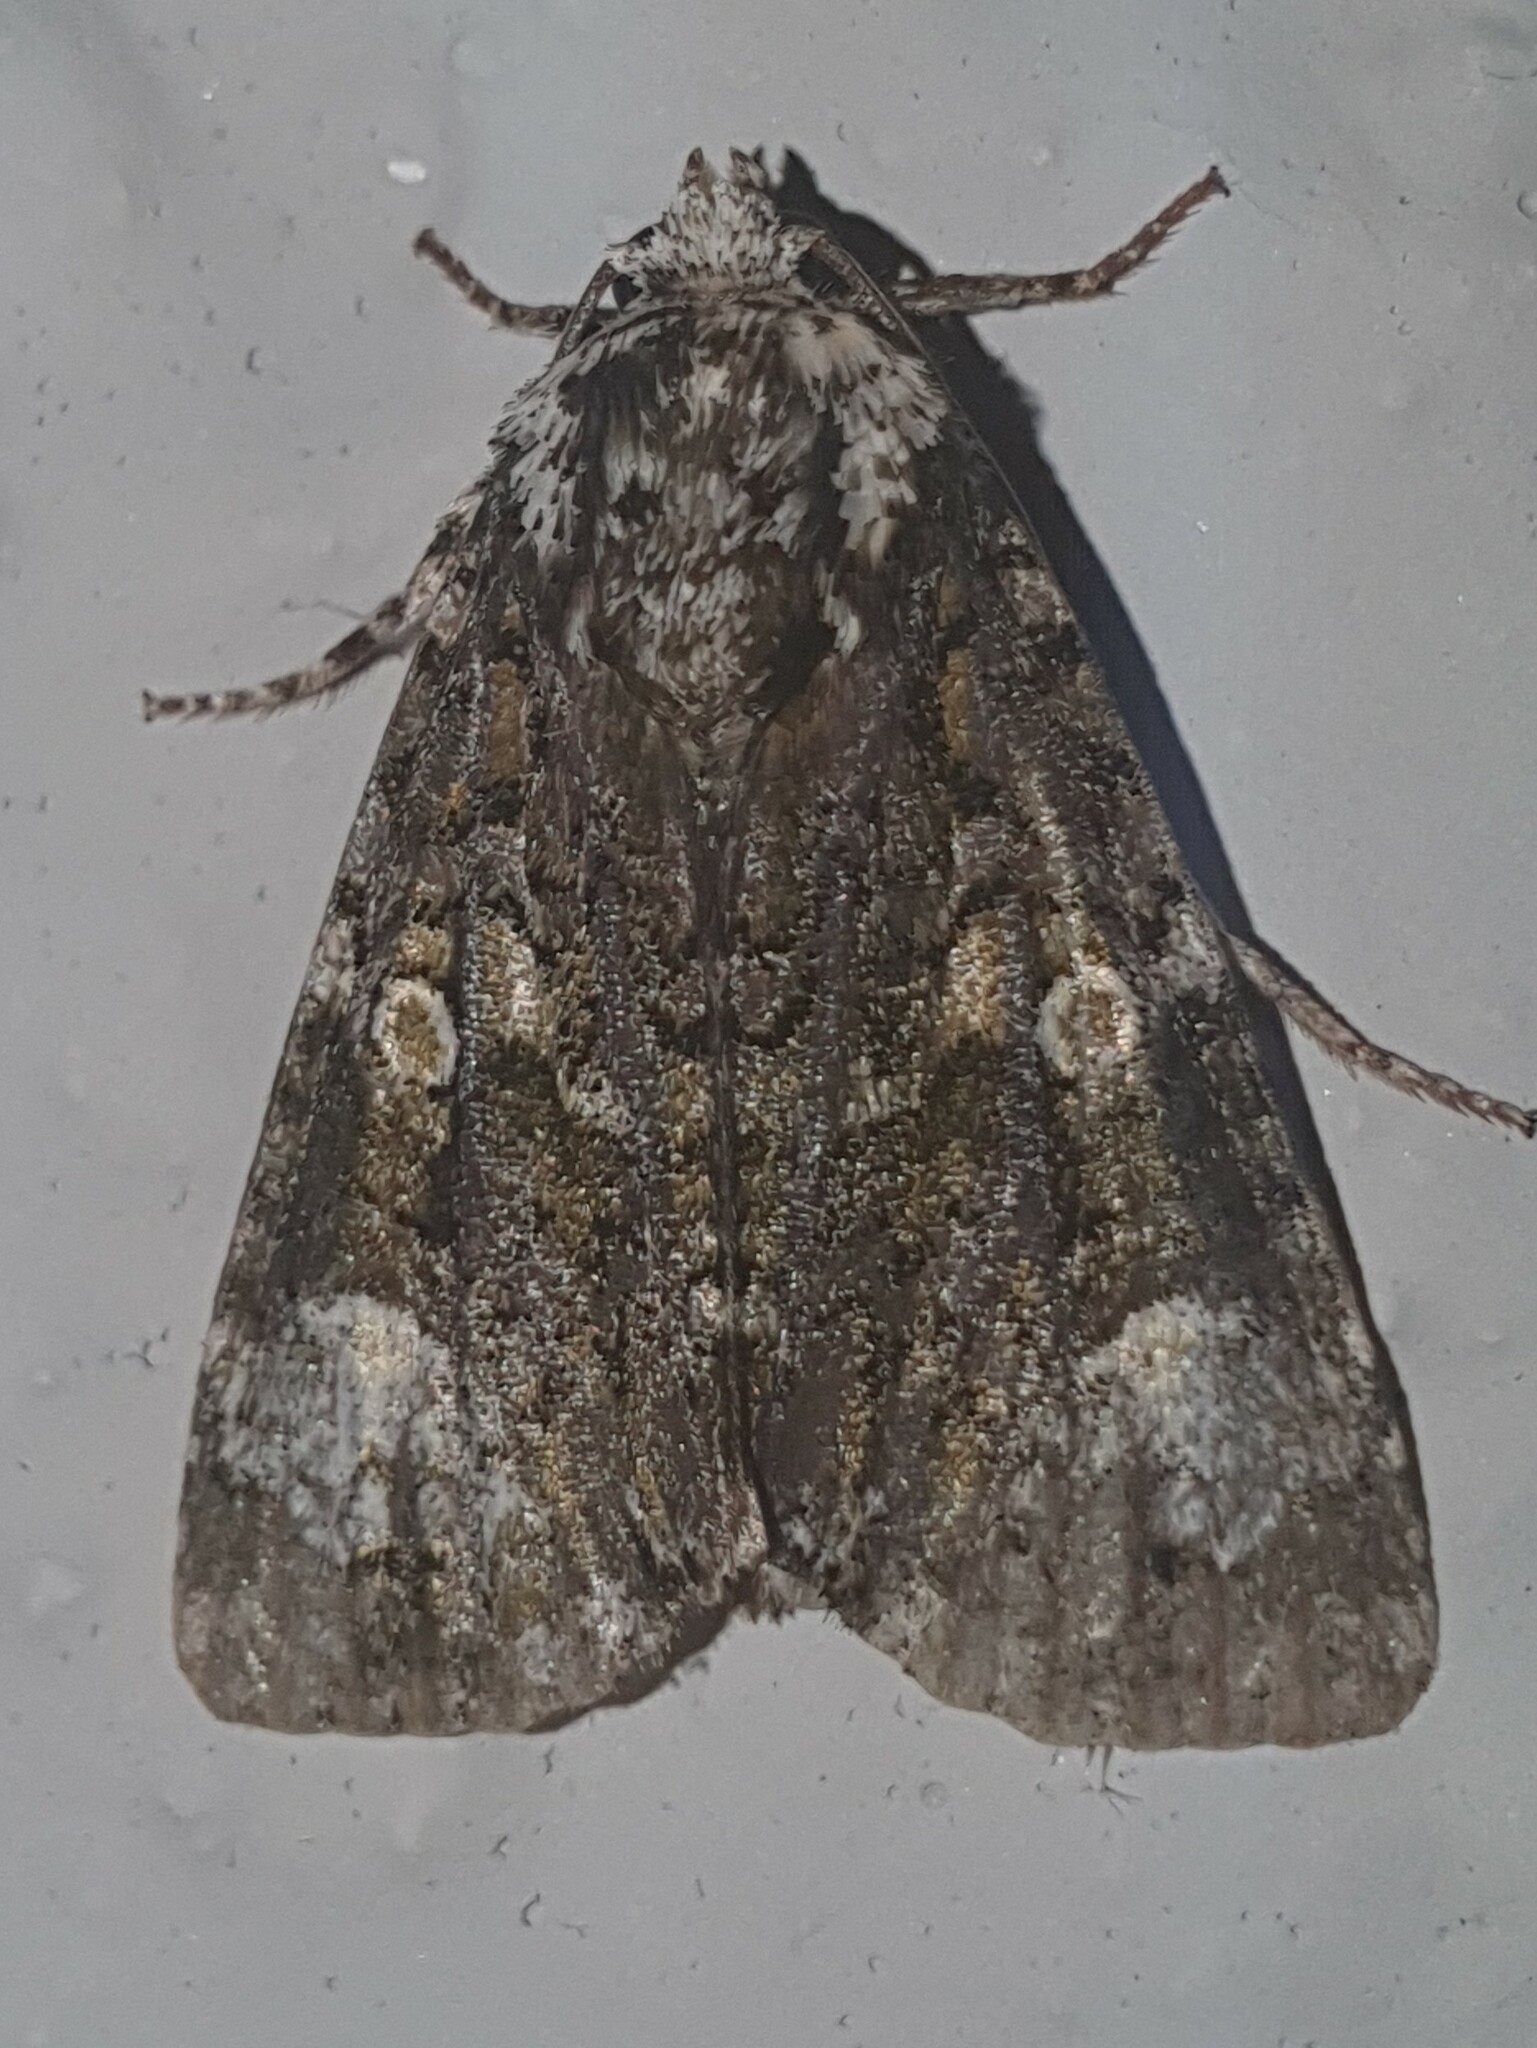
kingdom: Animalia
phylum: Arthropoda
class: Insecta
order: Lepidoptera
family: Noctuidae
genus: Craniophora
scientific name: Craniophora ligustri
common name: Coronet
